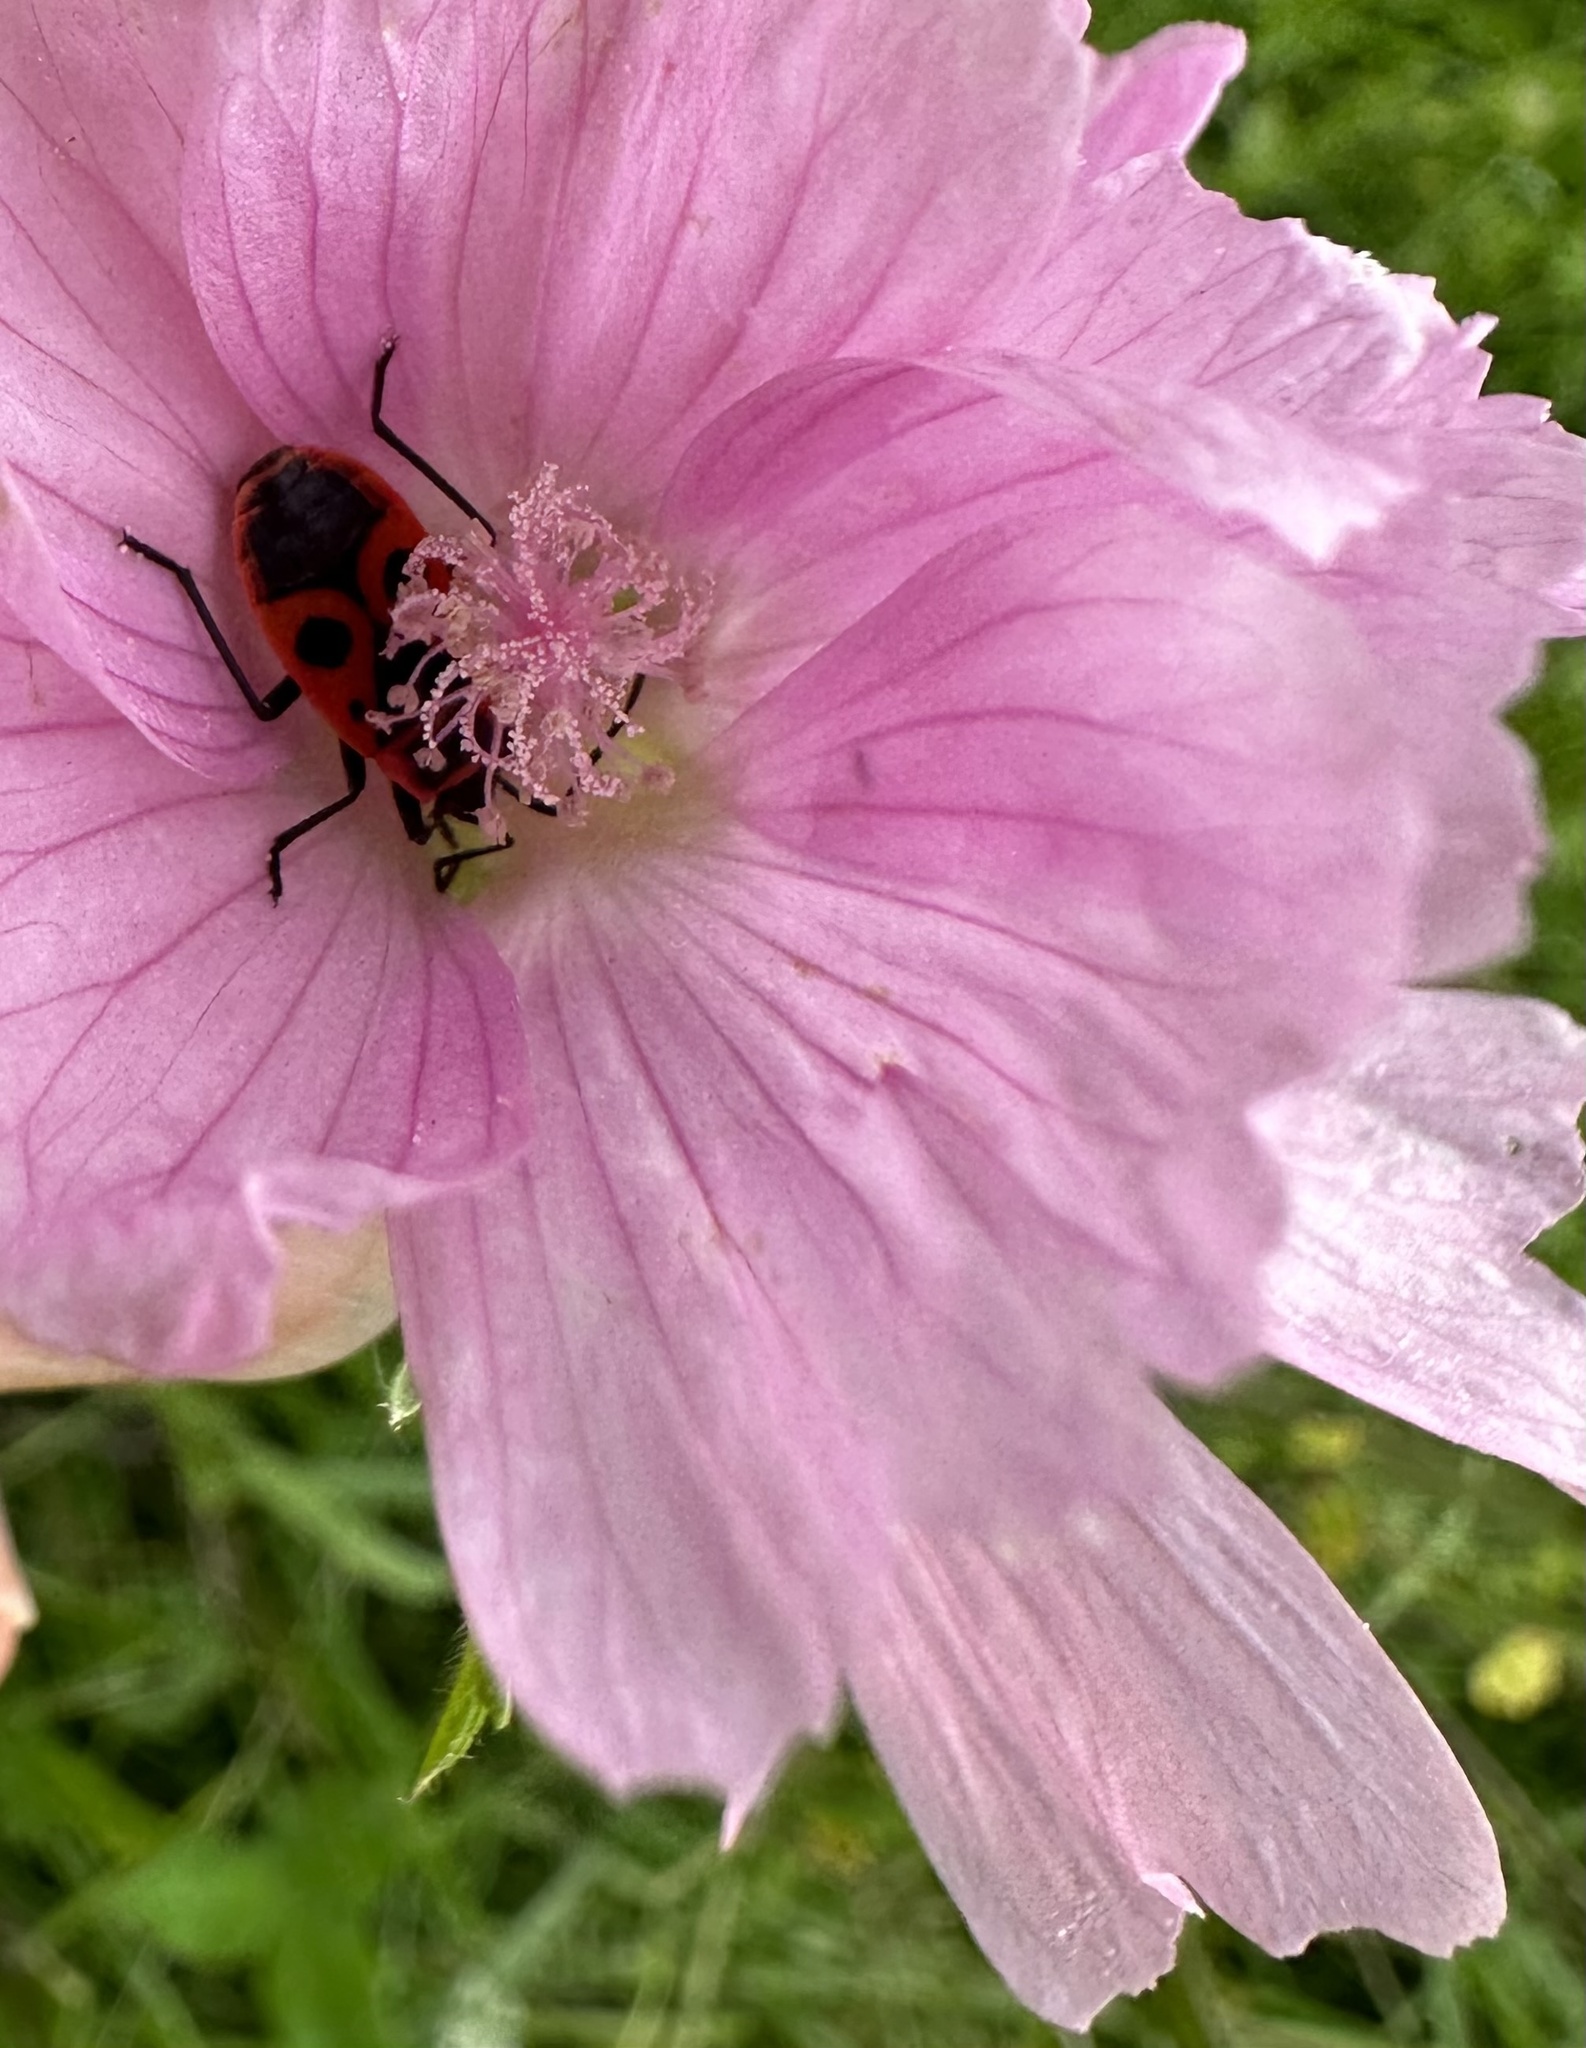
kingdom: Plantae
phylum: Tracheophyta
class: Magnoliopsida
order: Malvales
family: Malvaceae
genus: Malva
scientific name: Malva moschata
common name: Musk mallow
